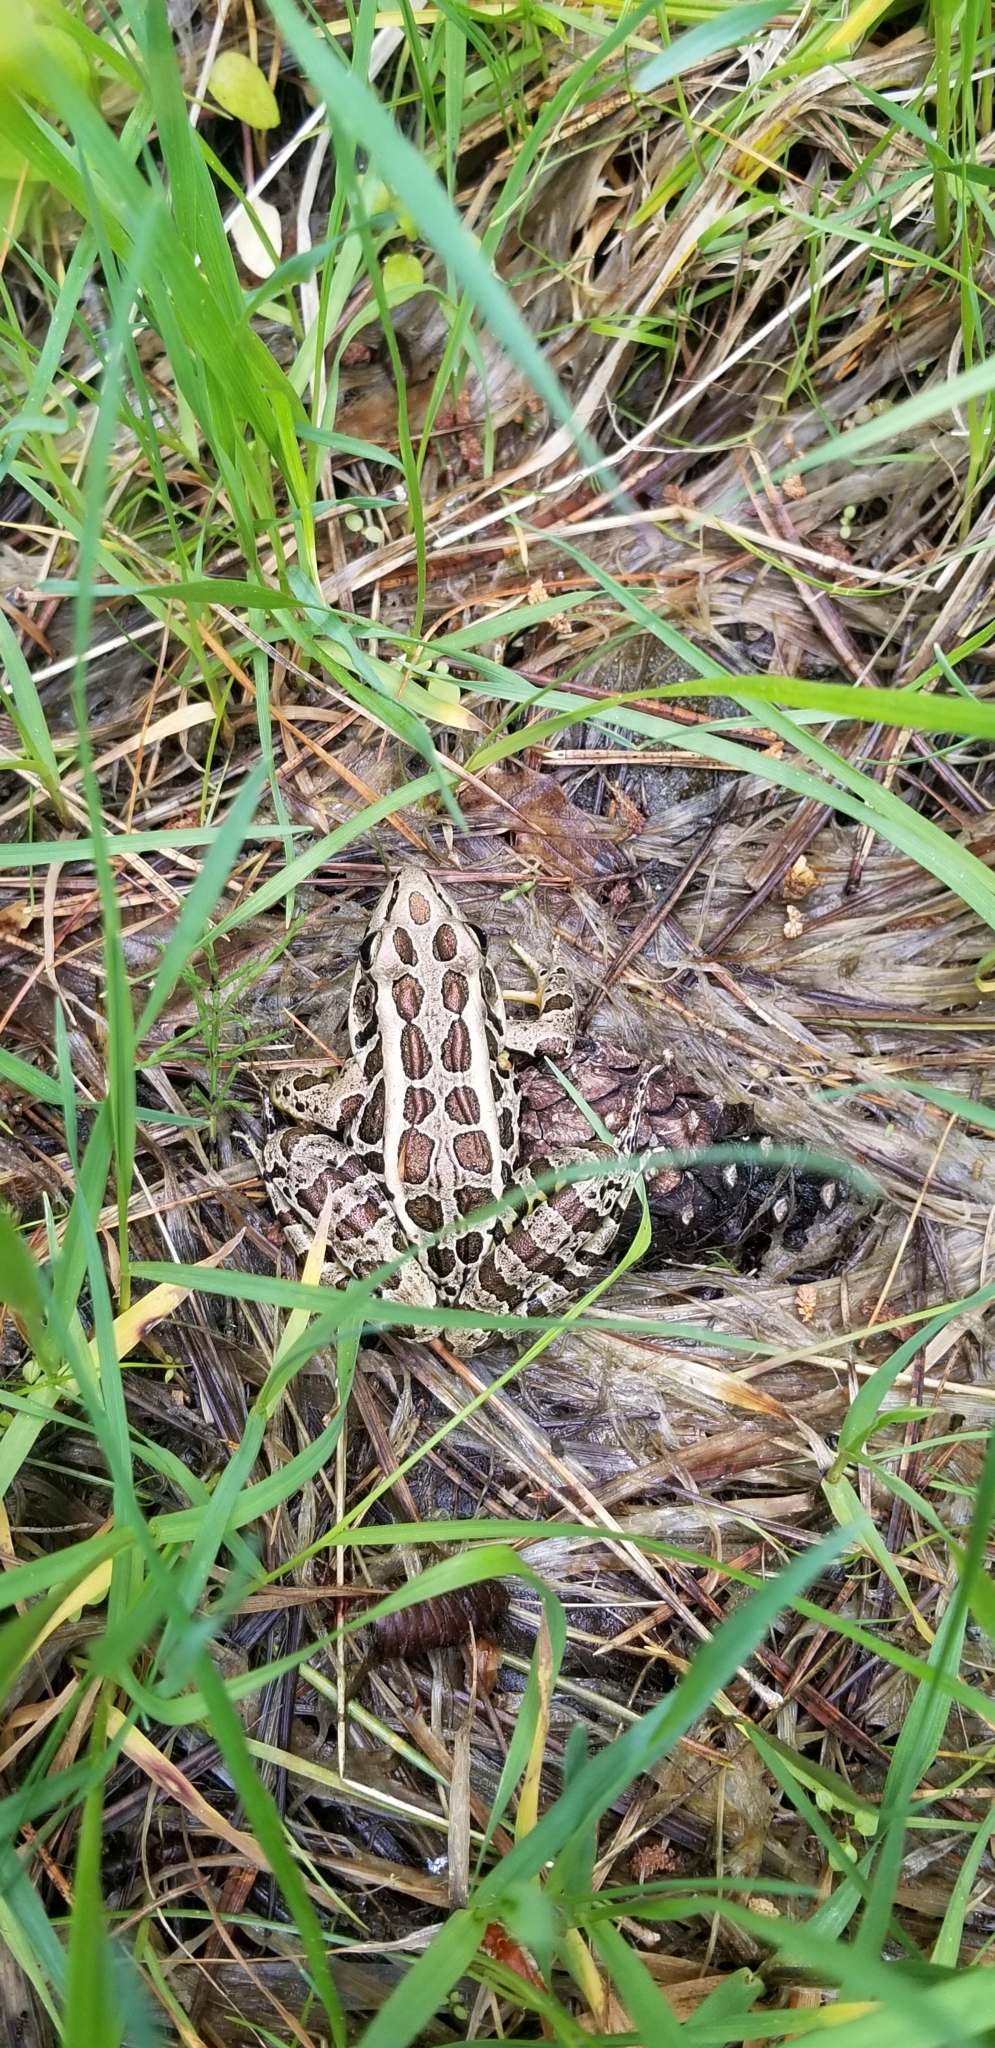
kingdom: Animalia
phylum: Chordata
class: Amphibia
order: Anura
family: Ranidae
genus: Lithobates
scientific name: Lithobates palustris
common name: Pickerel frog
